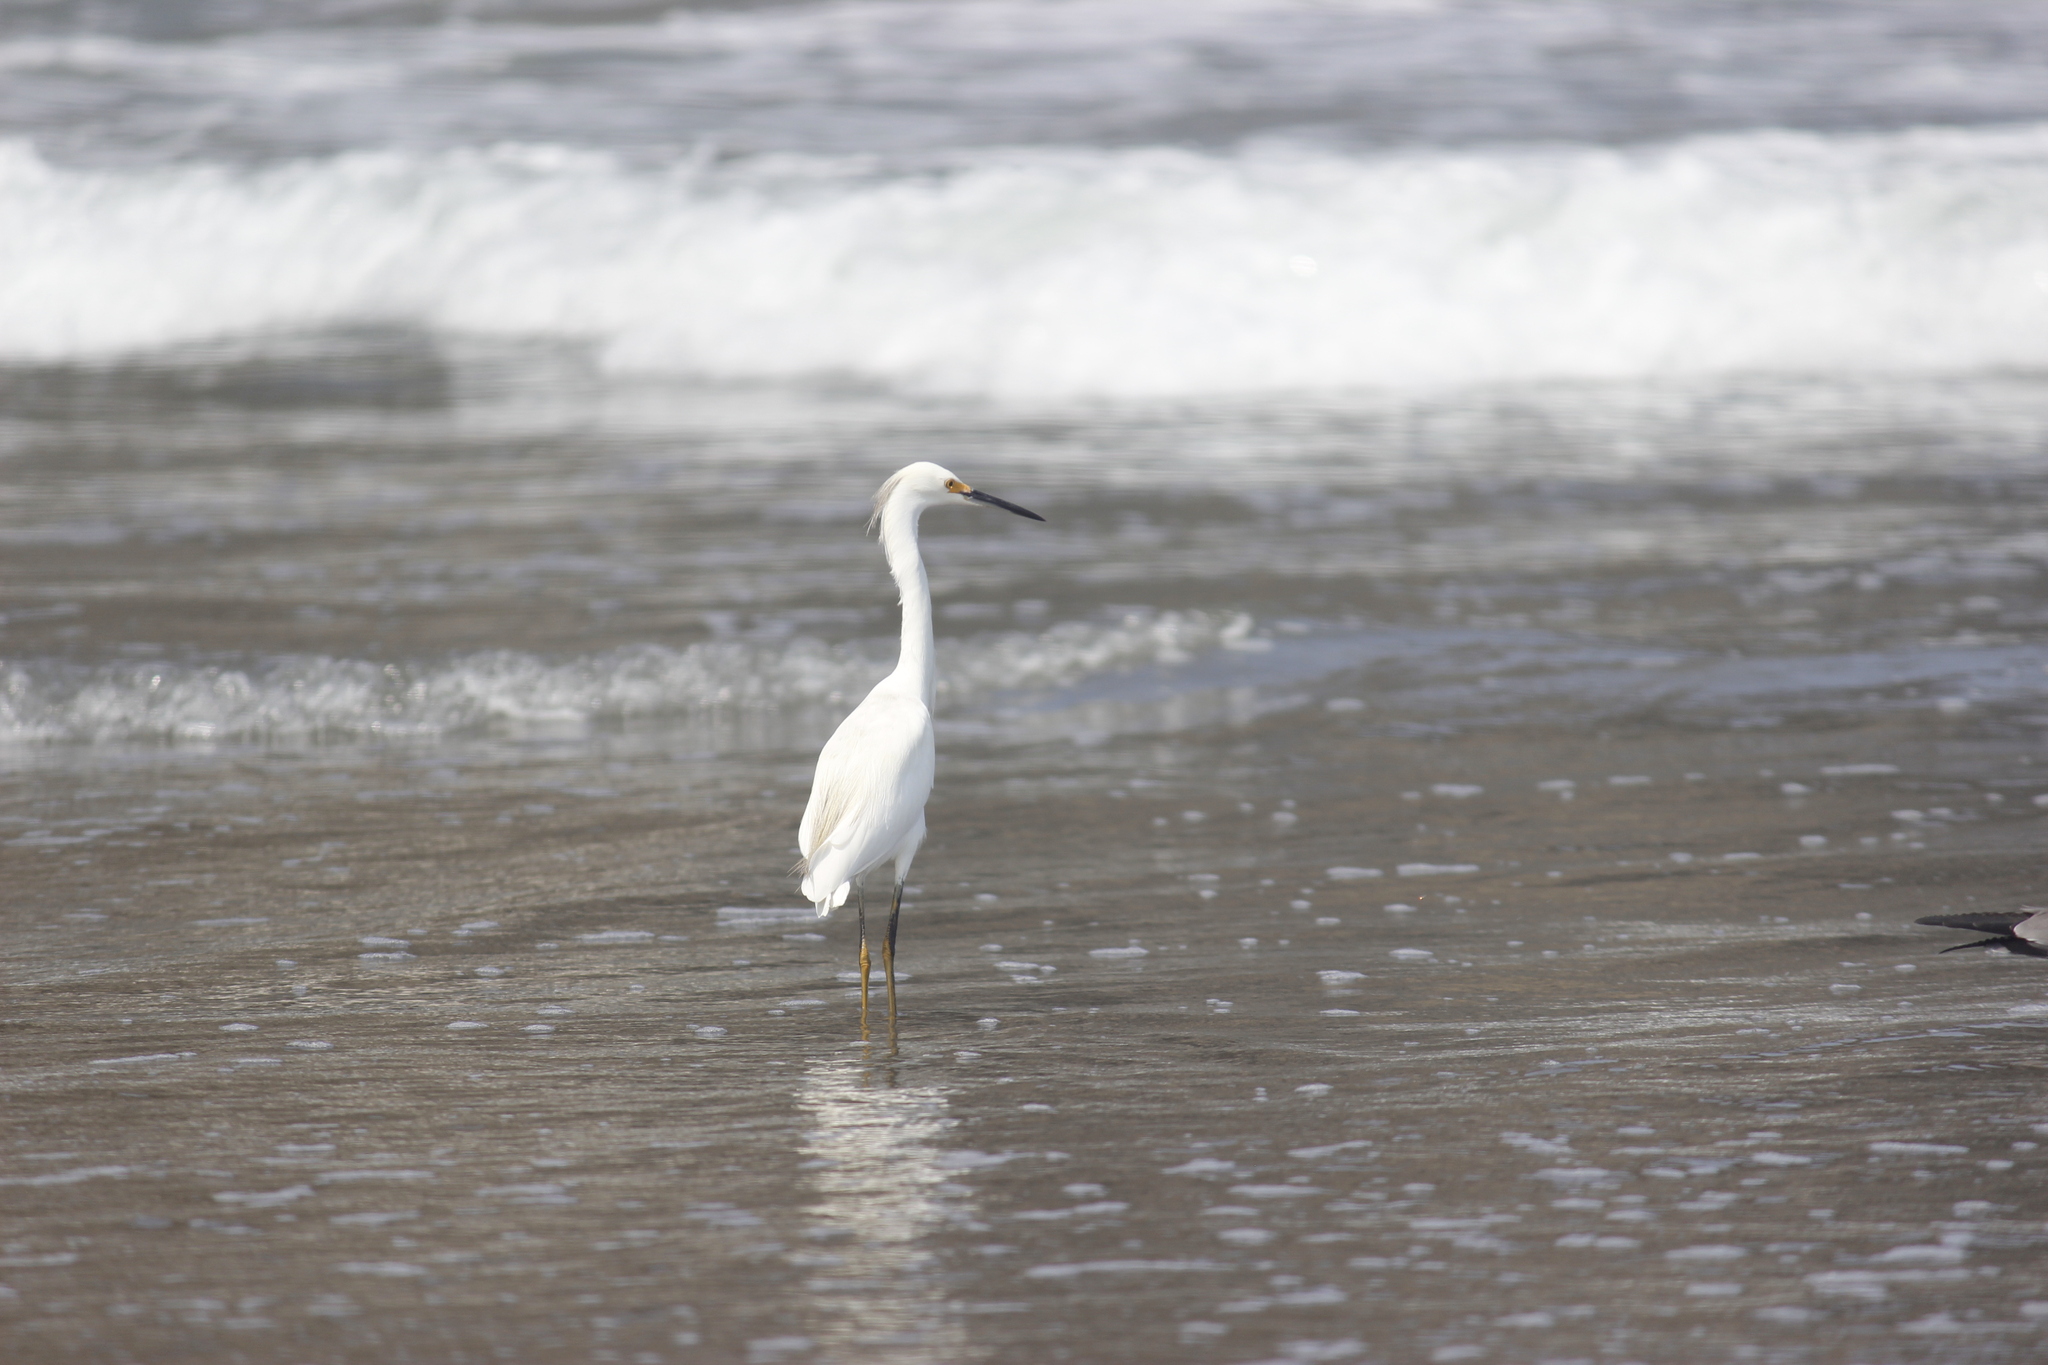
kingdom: Animalia
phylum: Chordata
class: Aves
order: Pelecaniformes
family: Ardeidae
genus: Egretta
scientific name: Egretta thula
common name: Snowy egret
